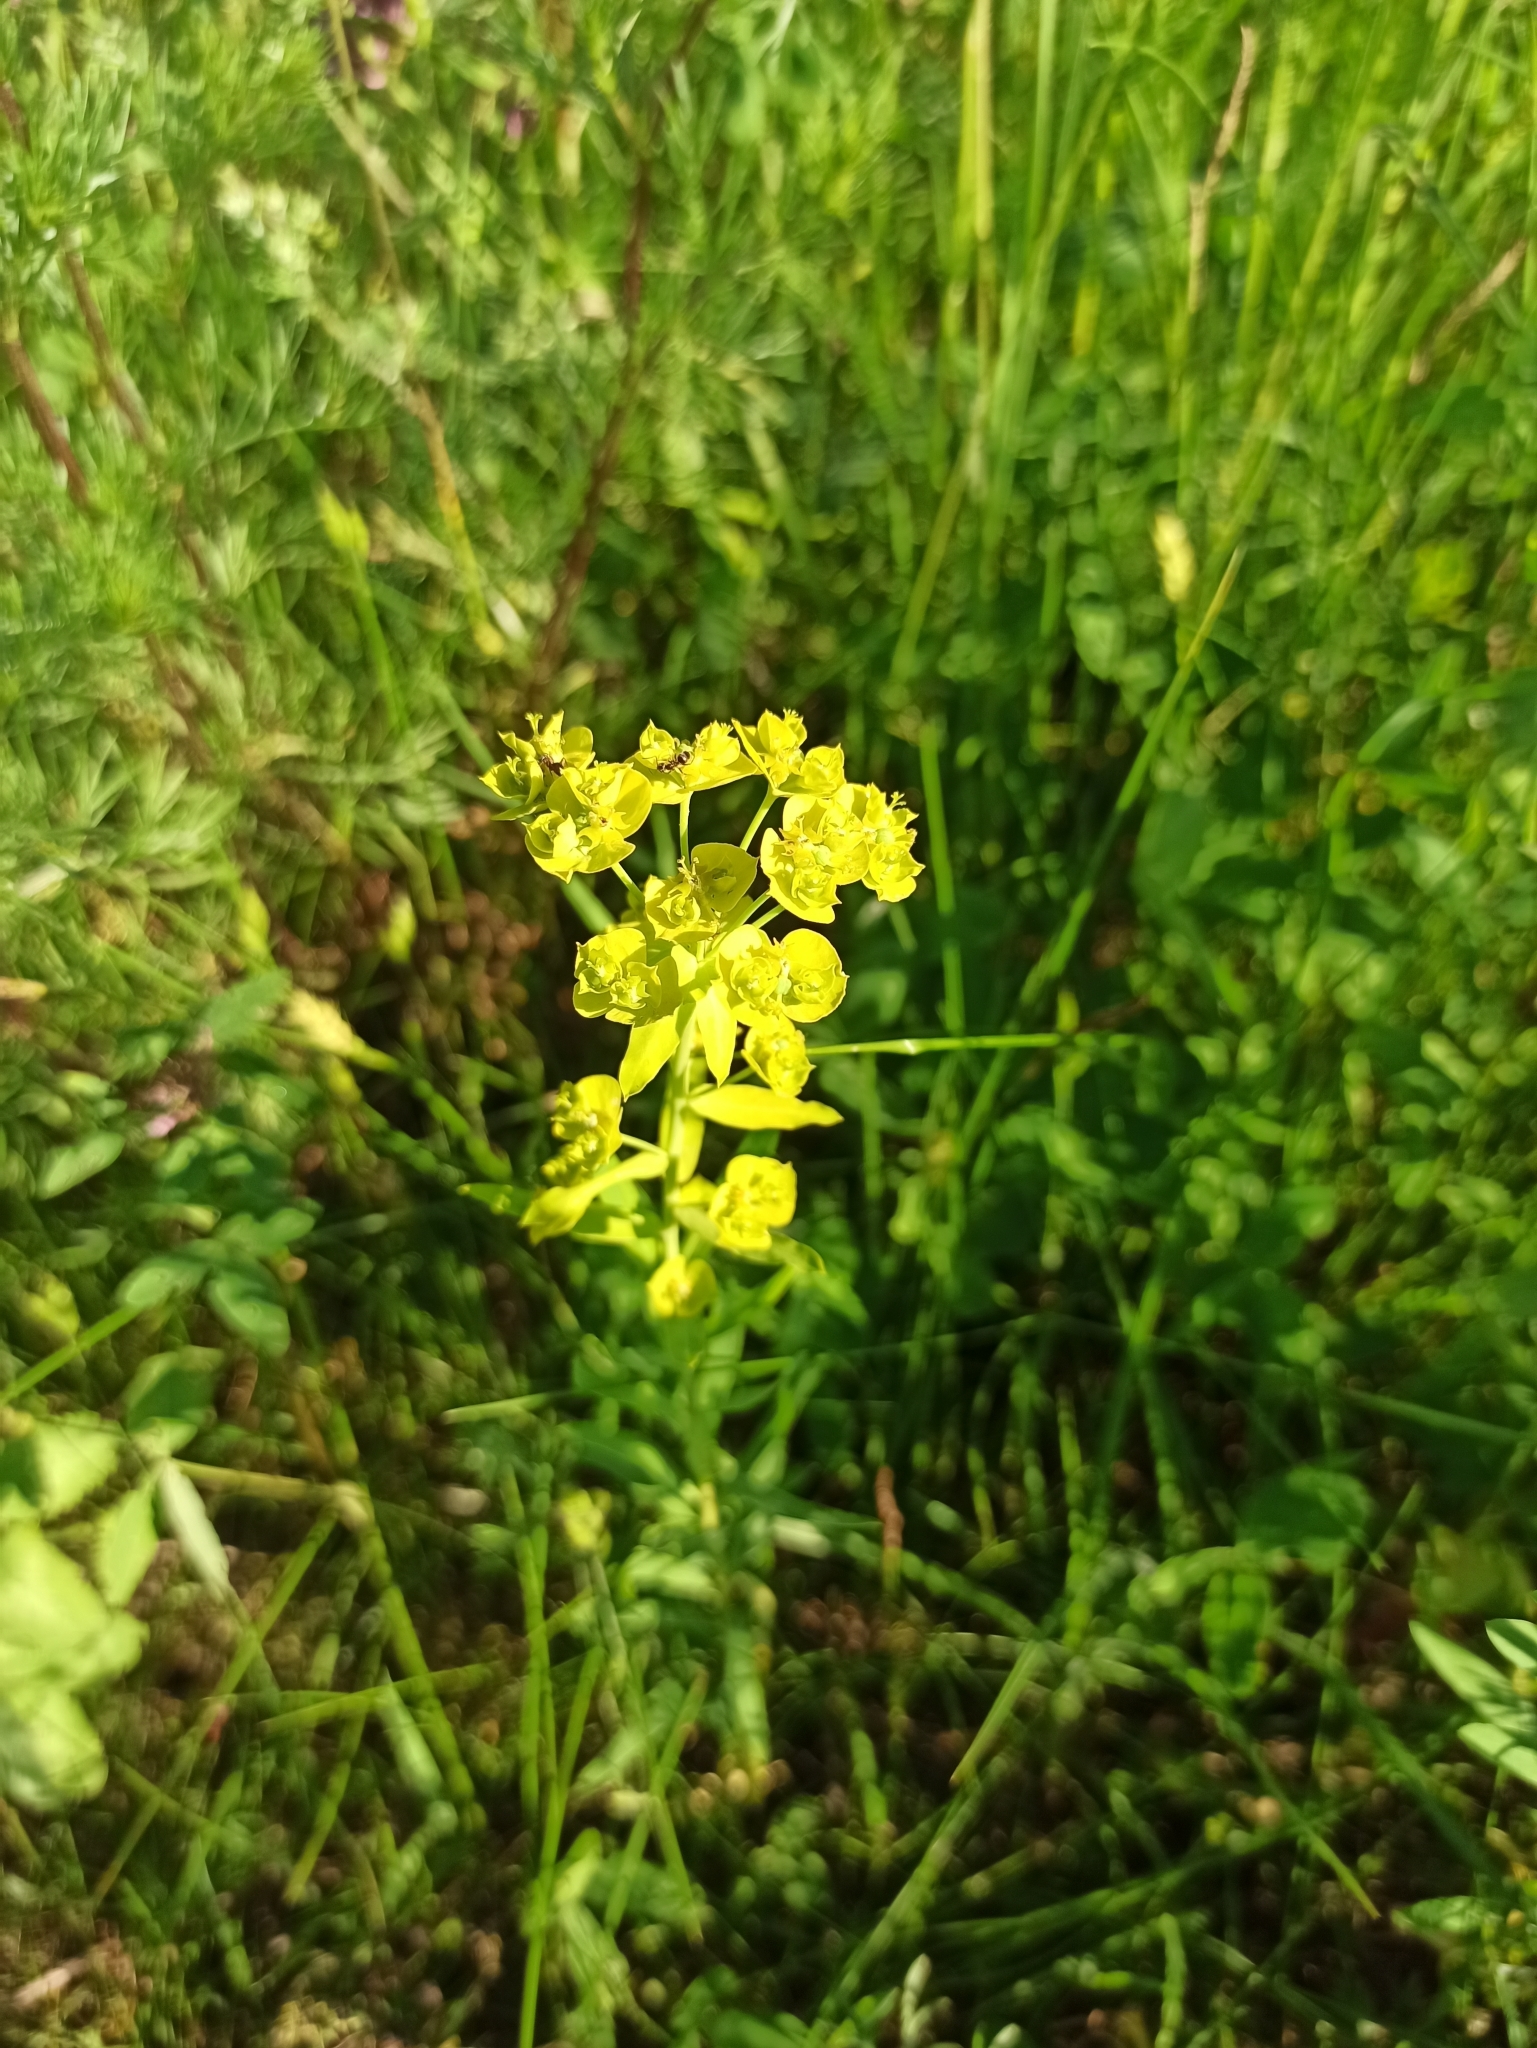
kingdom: Plantae
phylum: Tracheophyta
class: Magnoliopsida
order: Malpighiales
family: Euphorbiaceae
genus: Euphorbia
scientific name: Euphorbia virgata
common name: Leafy spurge
